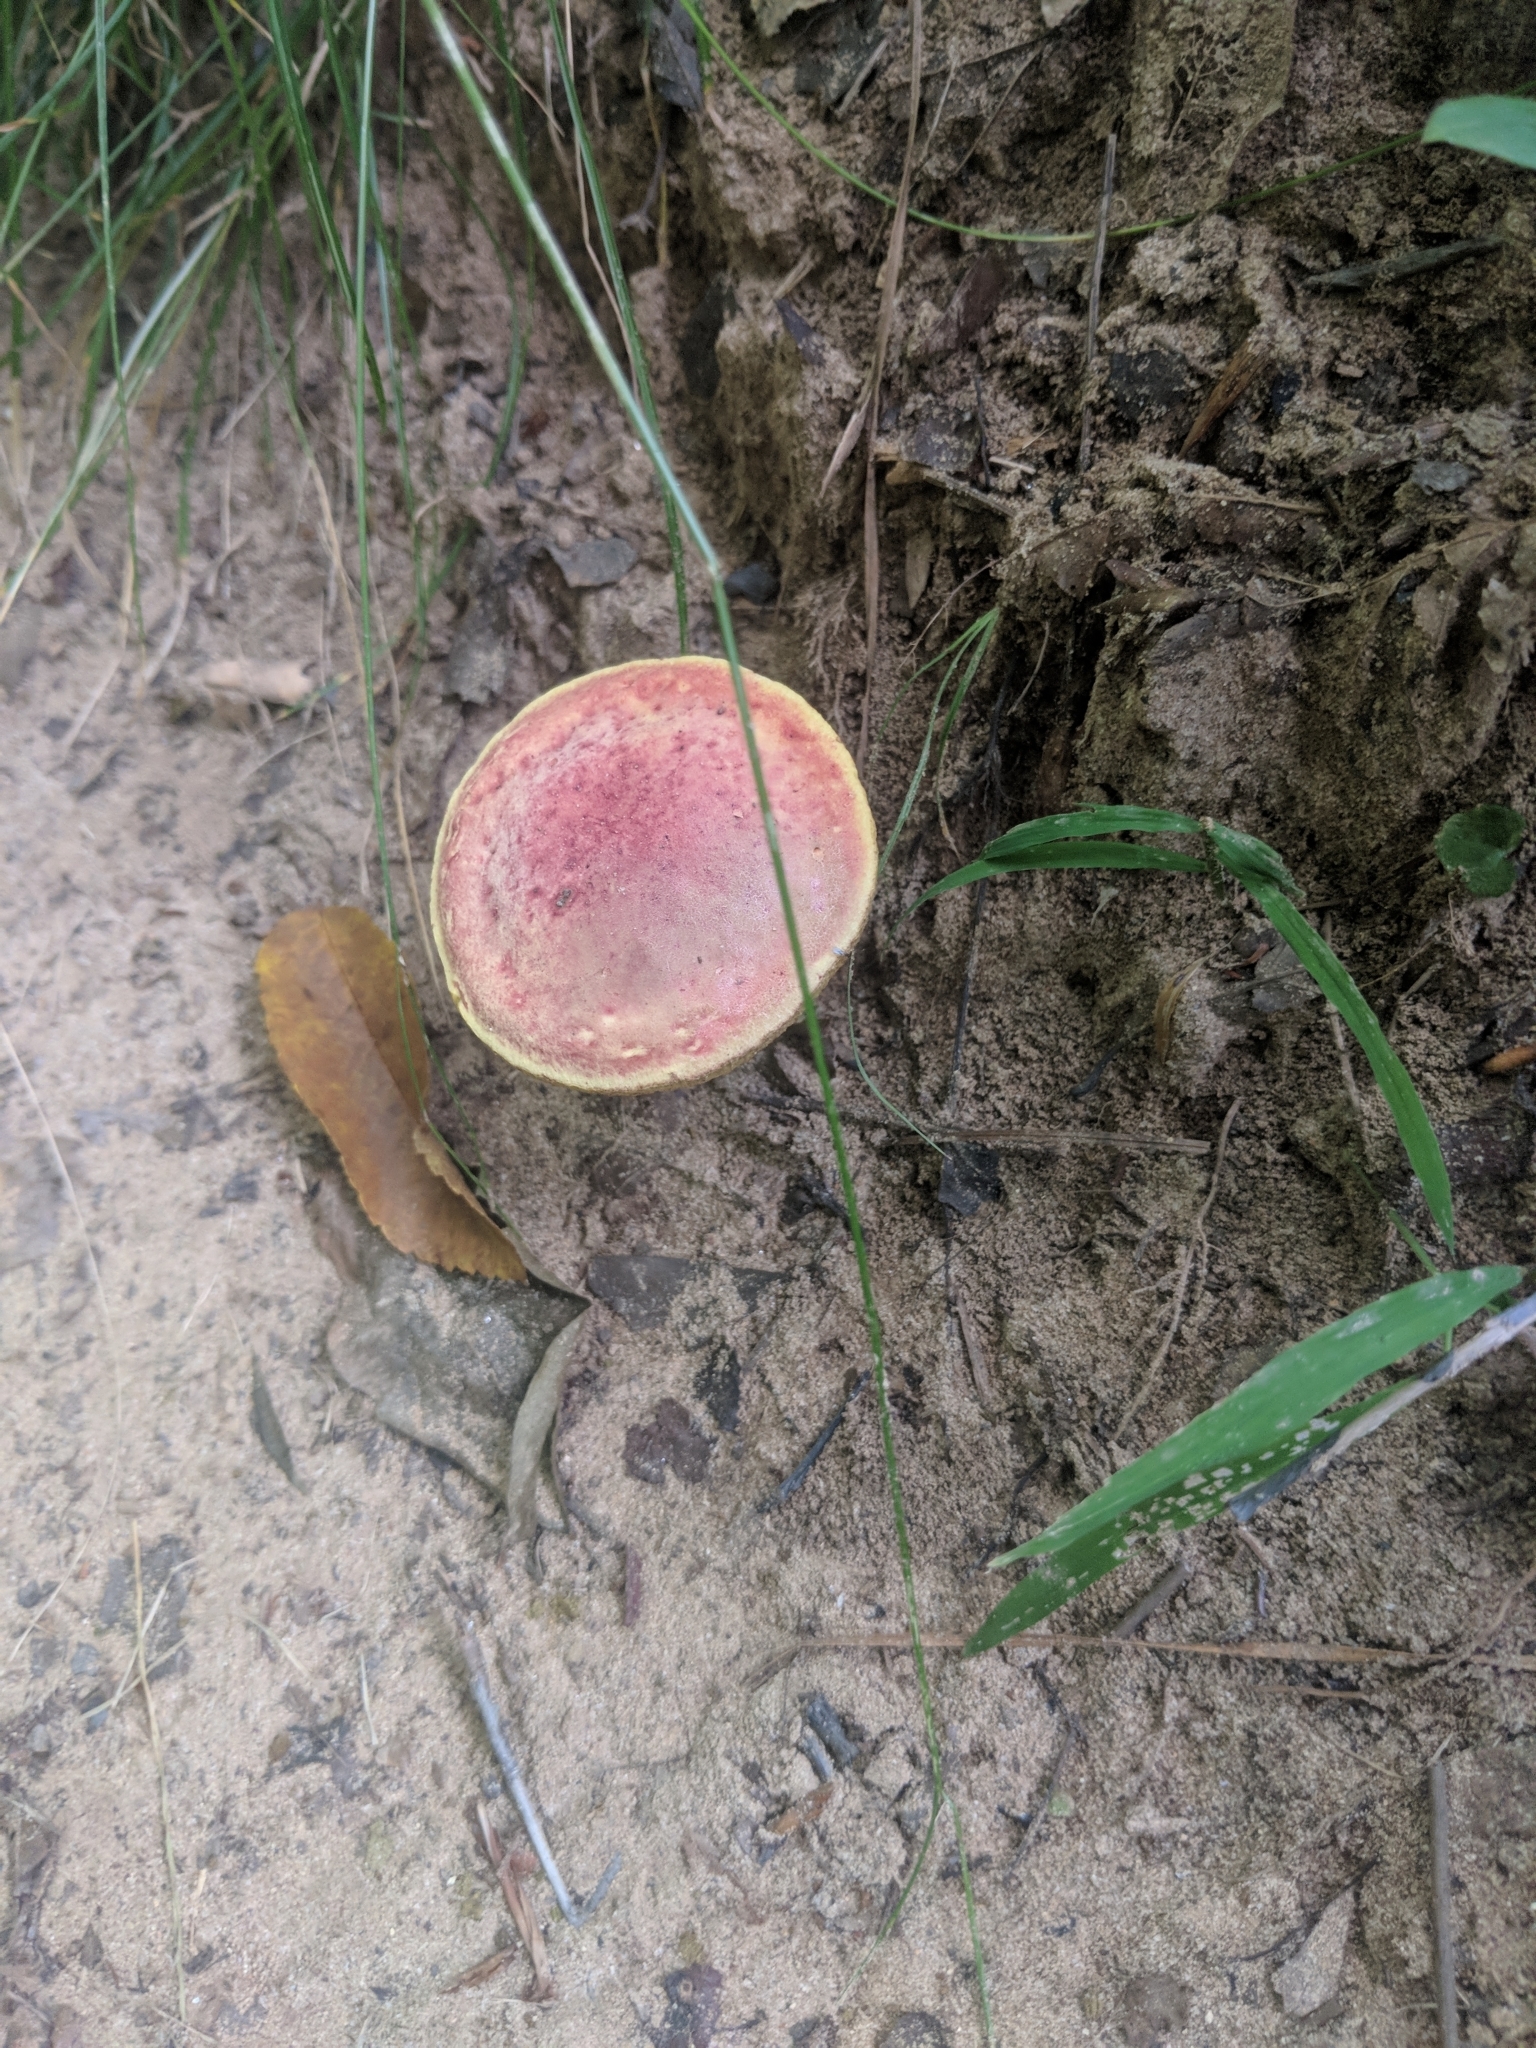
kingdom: Fungi
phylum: Basidiomycota
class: Agaricomycetes
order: Boletales
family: Boletaceae
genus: Hortiboletus
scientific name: Hortiboletus rubellus
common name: Ruby bolete
